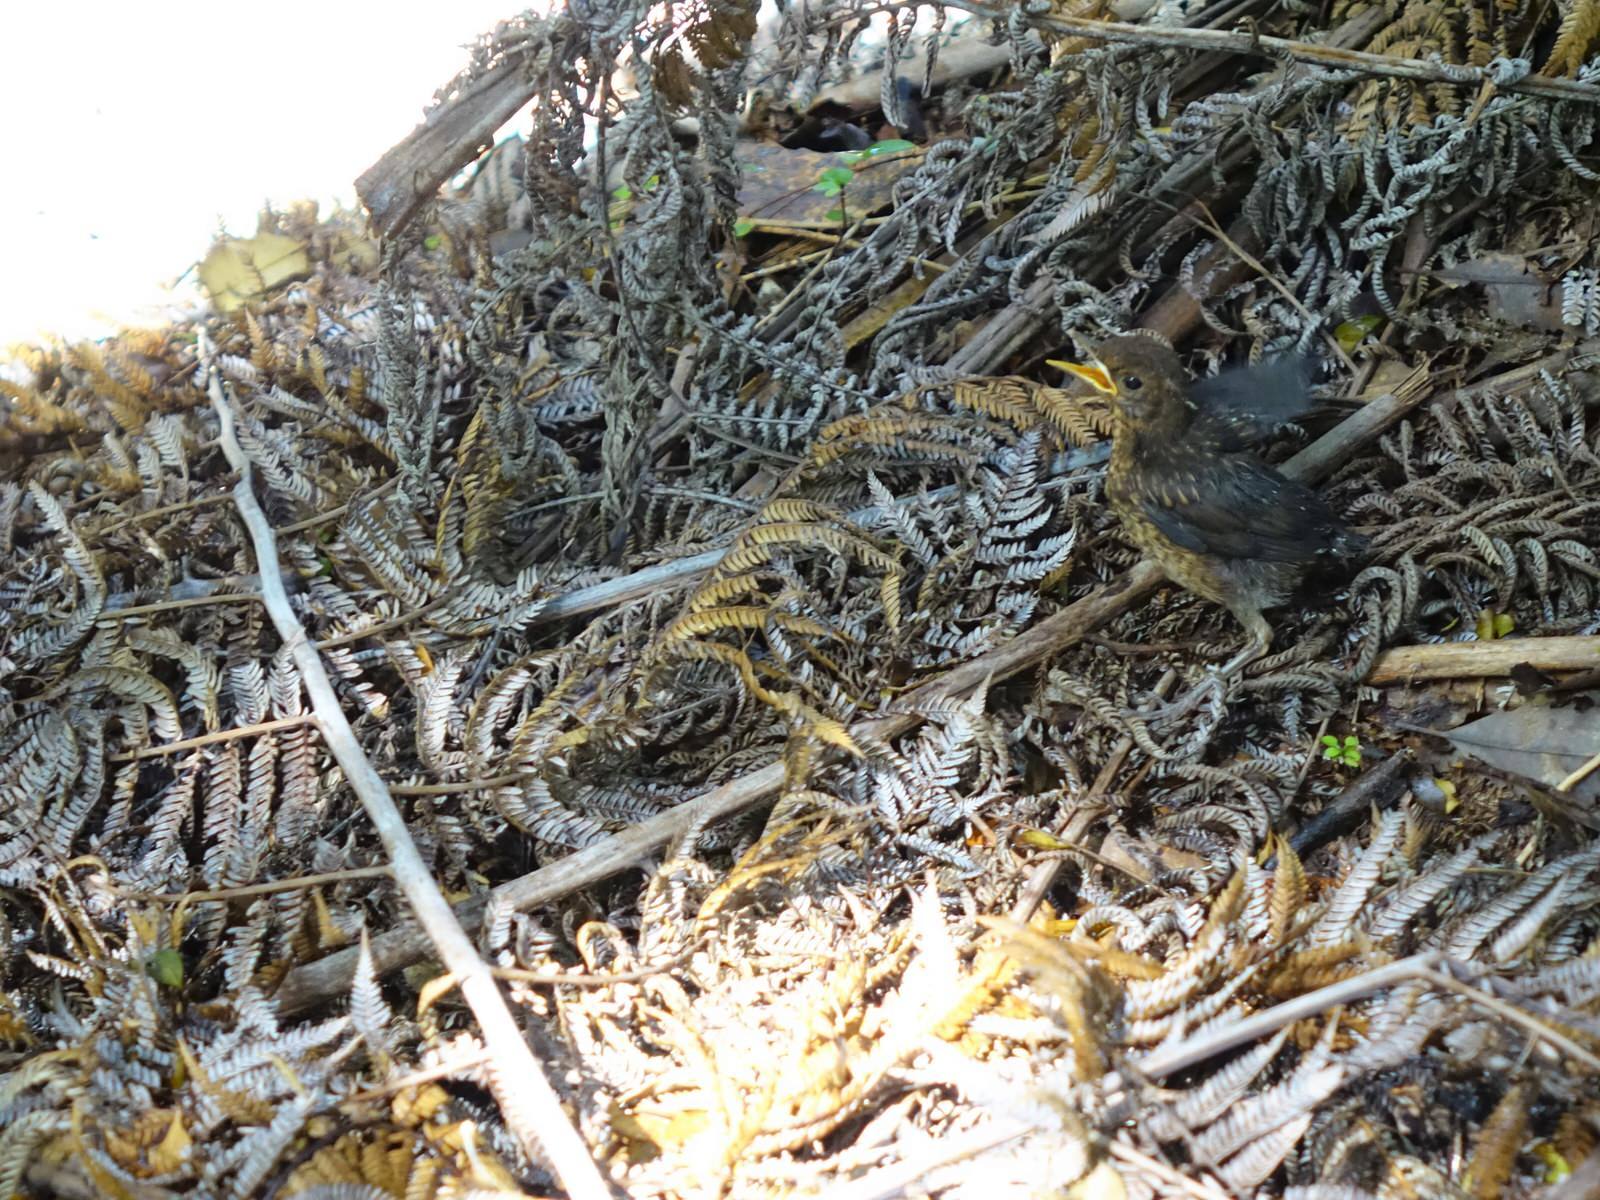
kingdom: Animalia
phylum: Chordata
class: Aves
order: Passeriformes
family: Turdidae
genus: Turdus
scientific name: Turdus merula
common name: Common blackbird
